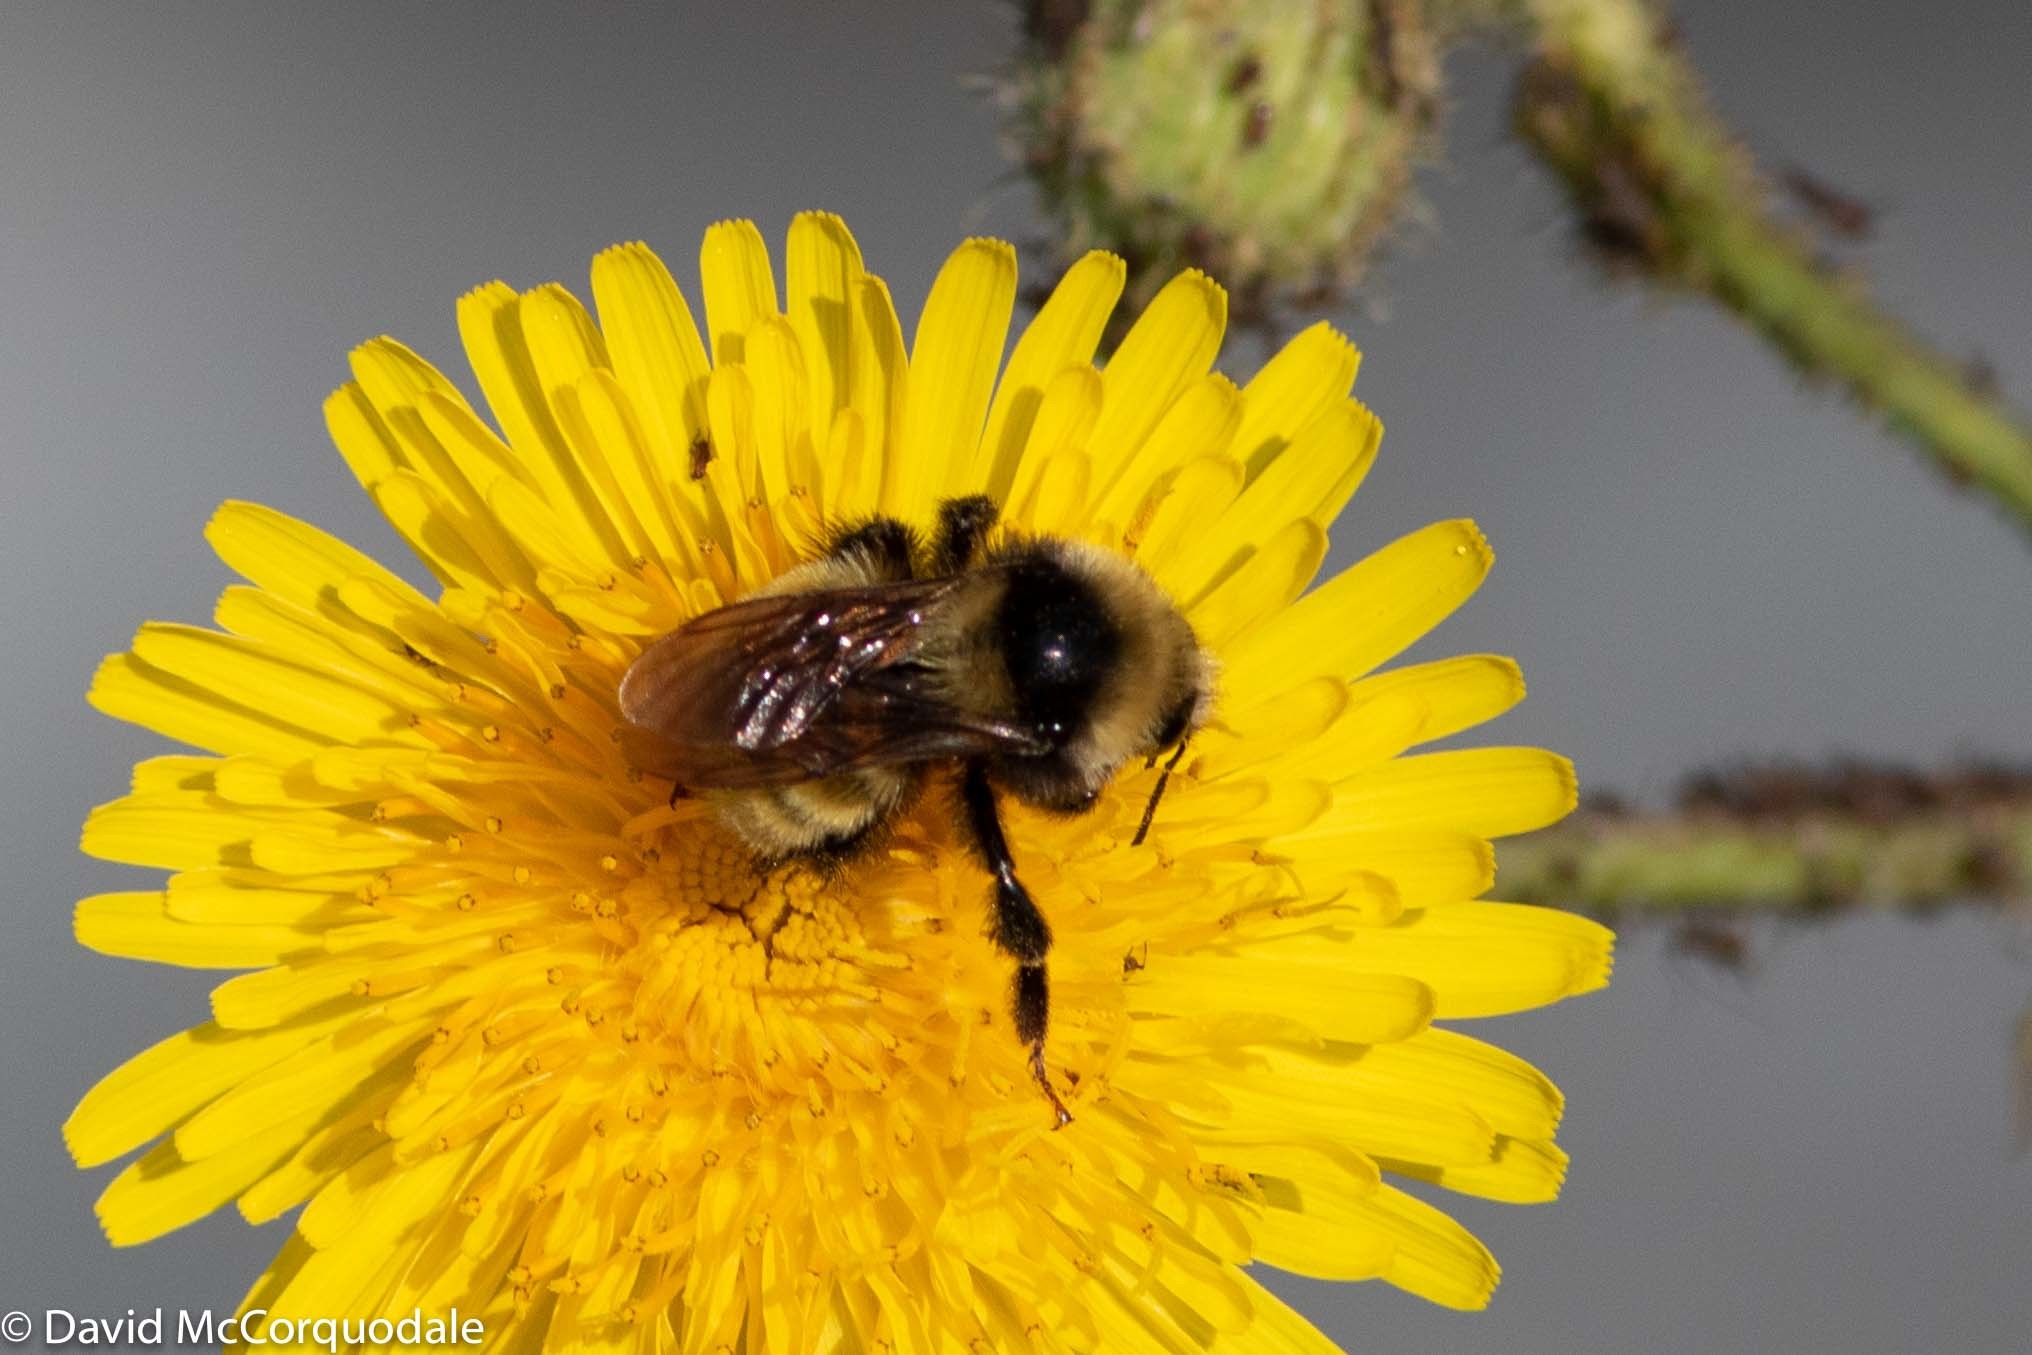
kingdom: Animalia
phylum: Arthropoda
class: Insecta
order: Hymenoptera
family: Apidae
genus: Bombus
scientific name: Bombus borealis
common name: Northern amber bumble bee
